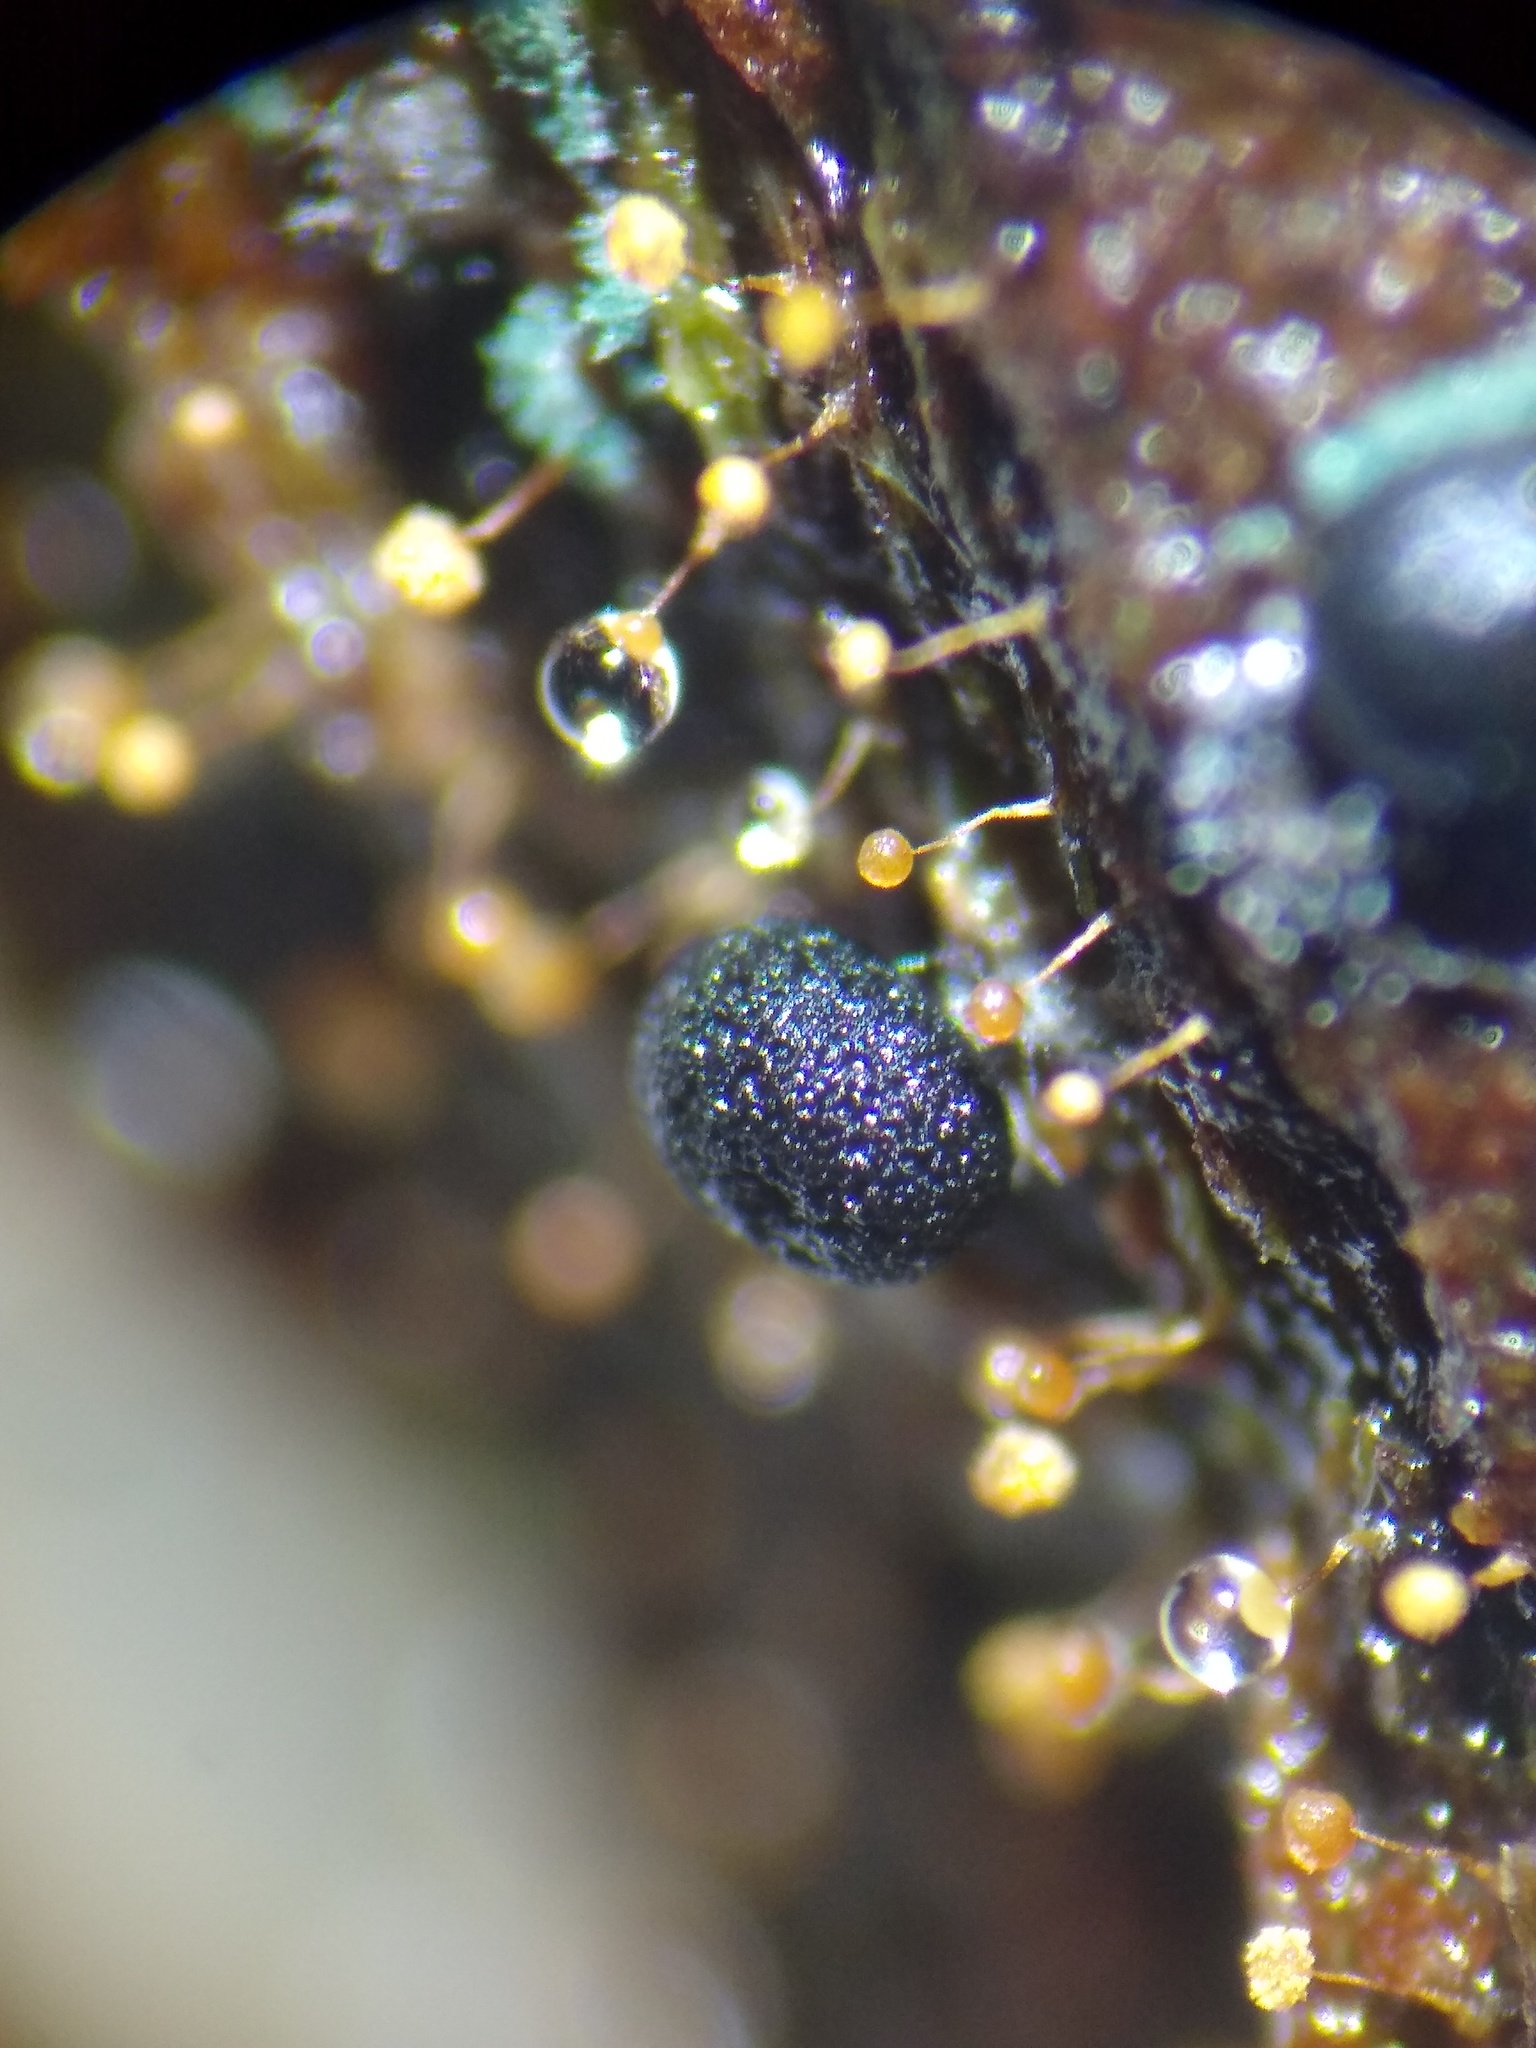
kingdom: Protozoa
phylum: Mycetozoa
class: Myxomycetes
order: Stemonitidales
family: Stemonitidaceae
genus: Enerthenema
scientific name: Enerthenema papillatum
